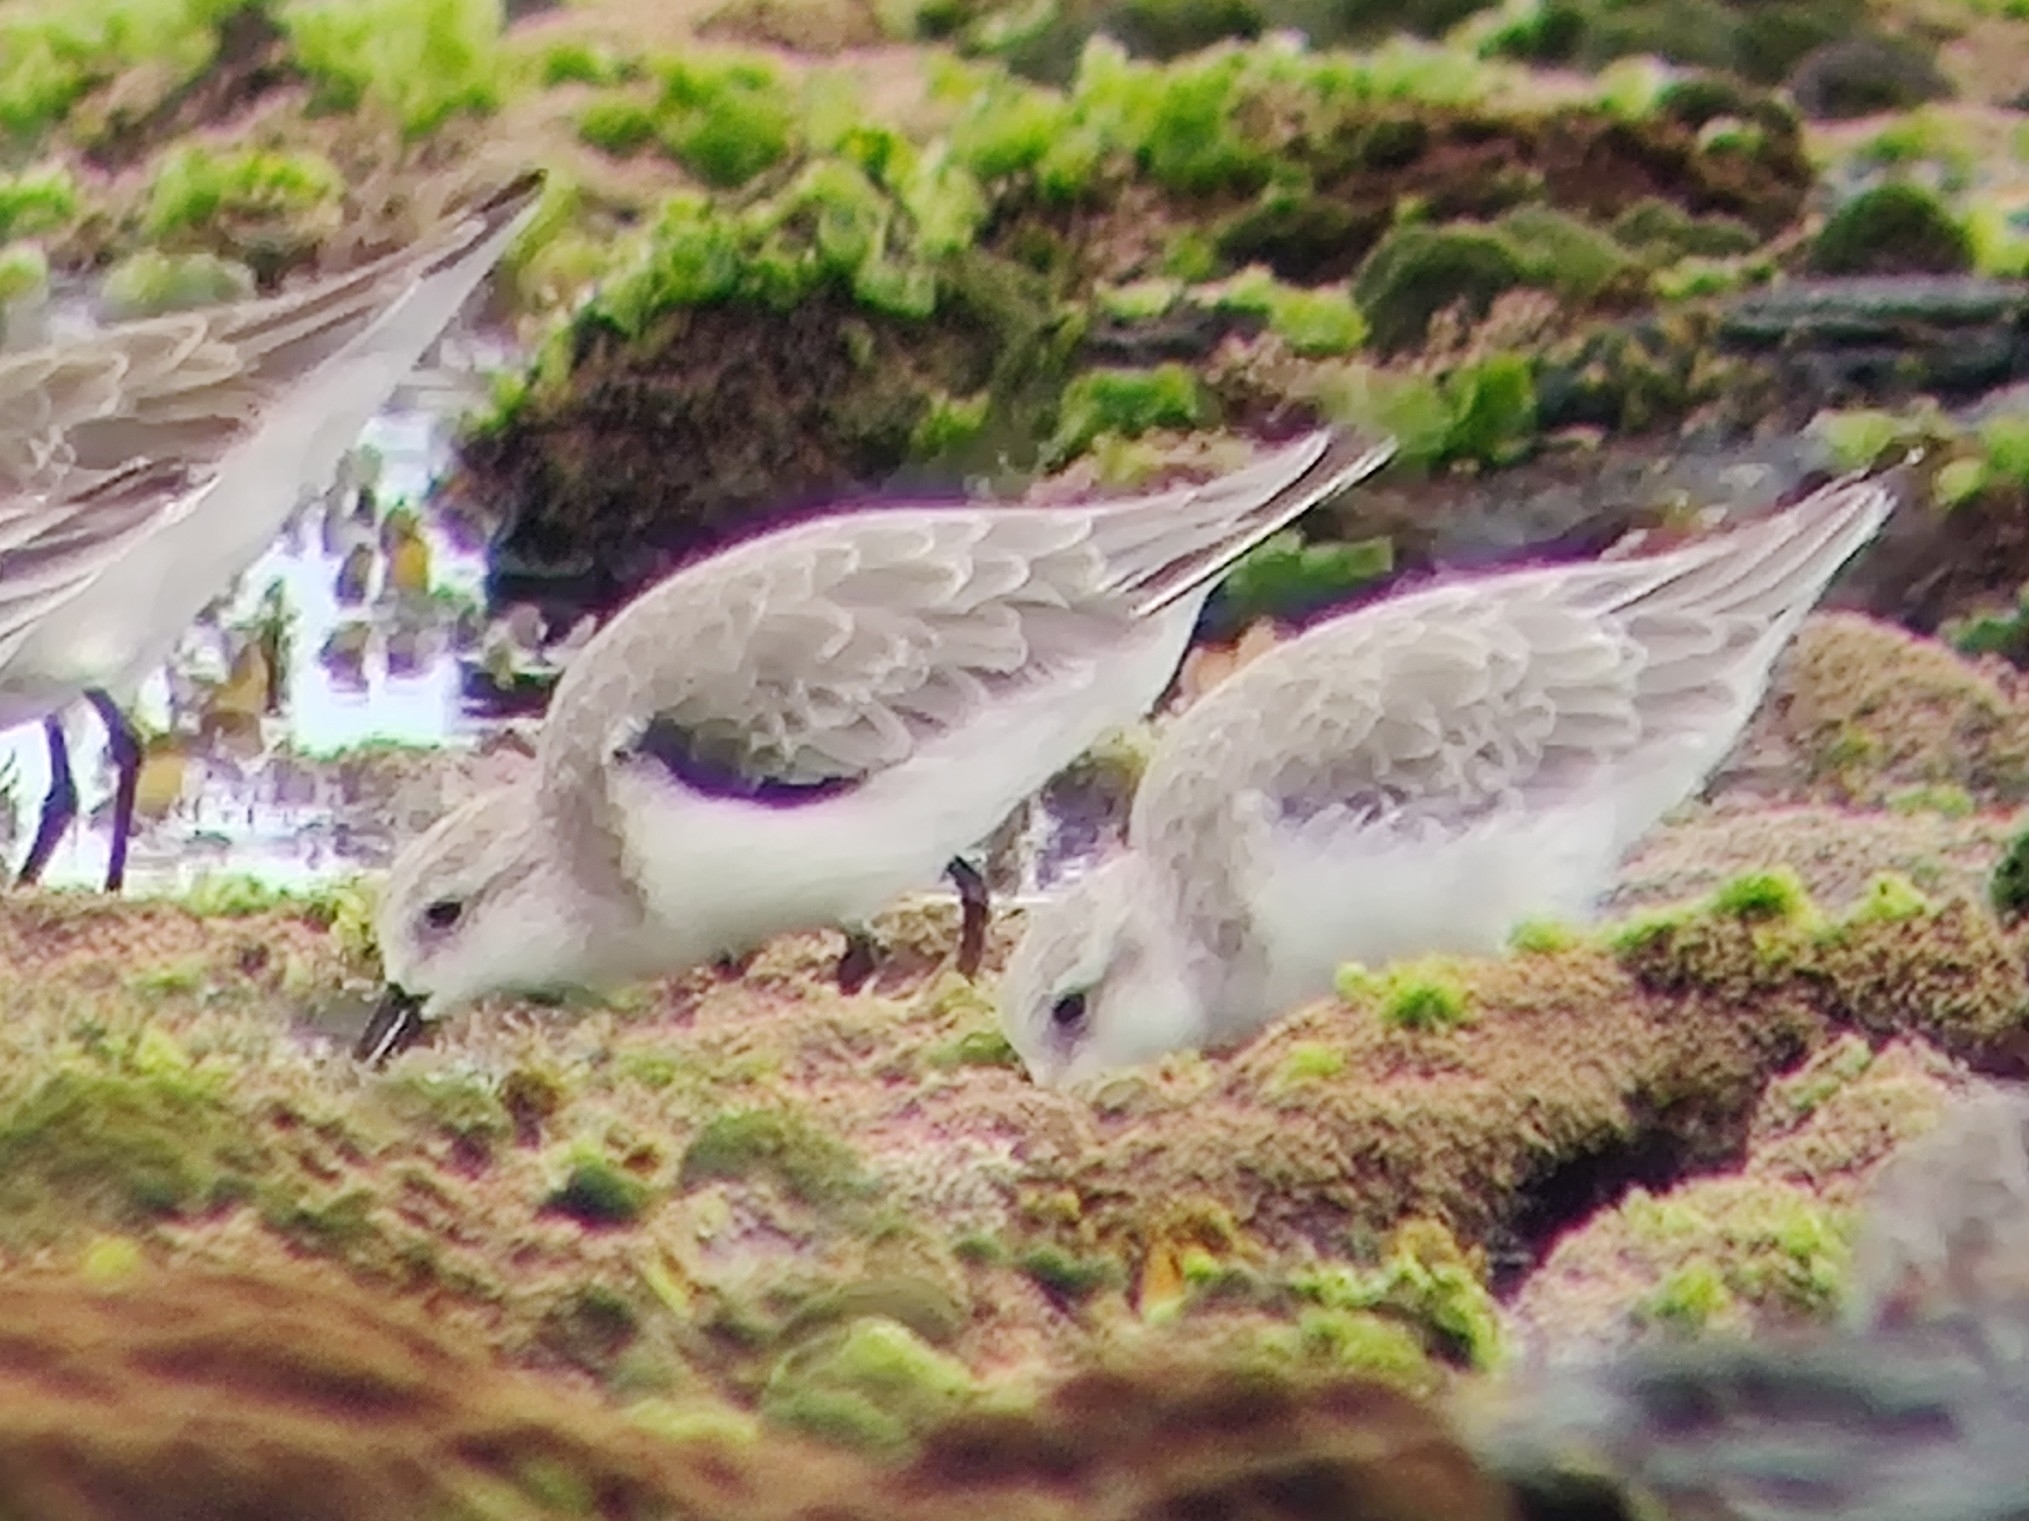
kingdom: Animalia
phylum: Chordata
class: Aves
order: Charadriiformes
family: Scolopacidae
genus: Calidris
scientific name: Calidris alba
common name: Sanderling
